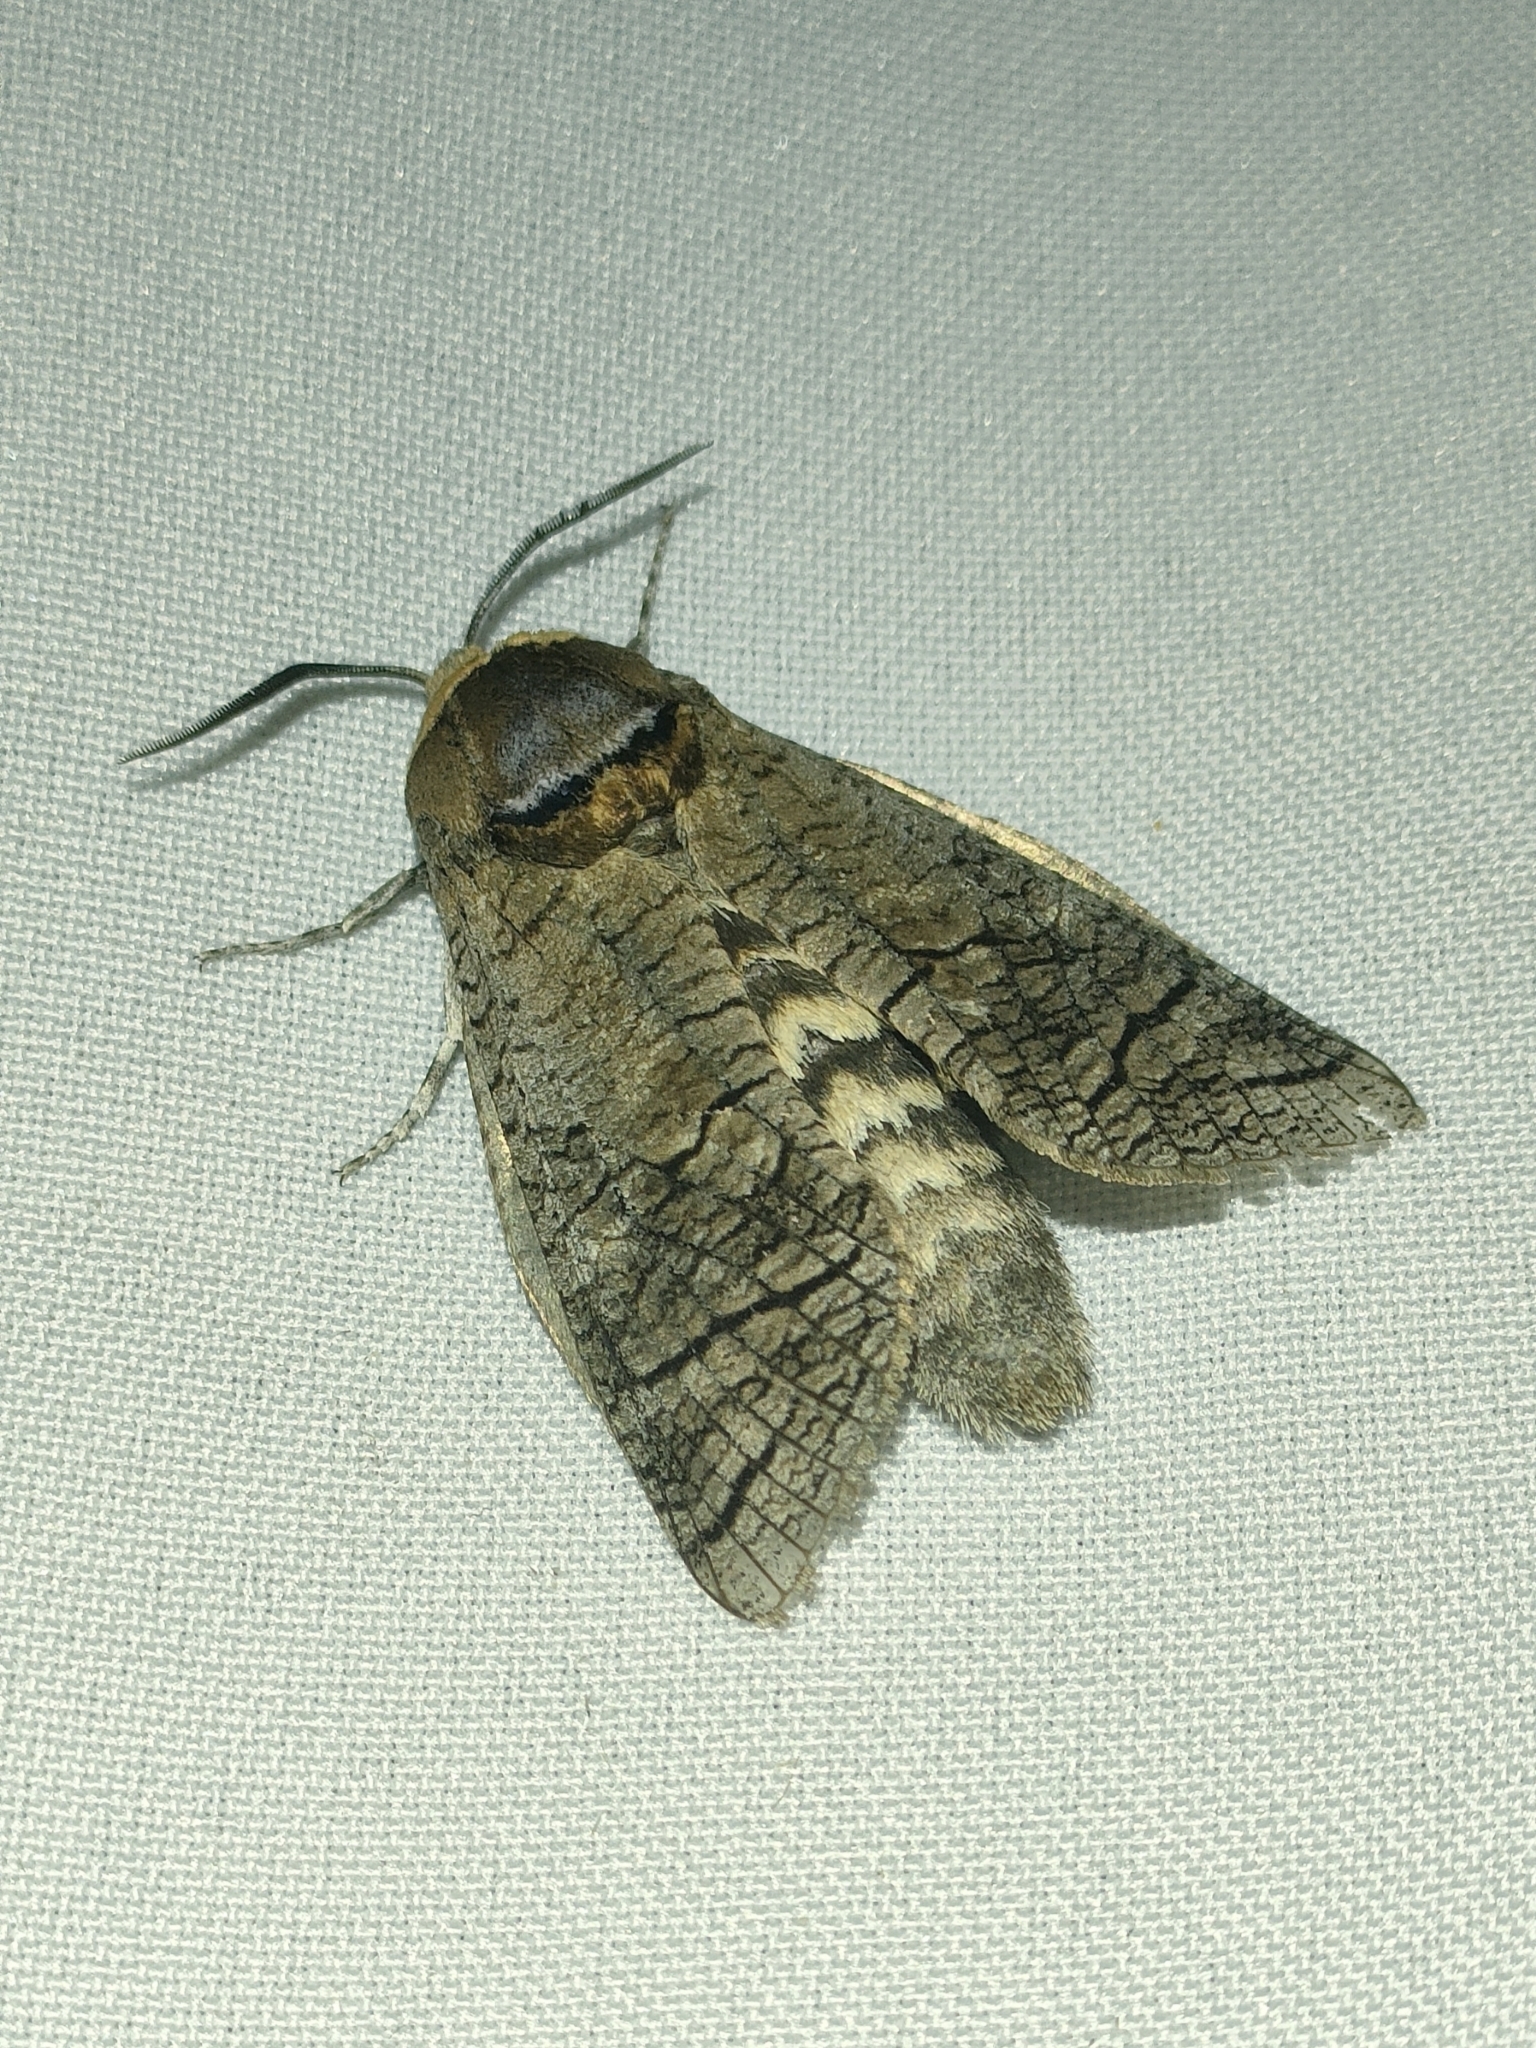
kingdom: Animalia
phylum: Arthropoda
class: Insecta
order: Lepidoptera
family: Cossidae
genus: Cossus
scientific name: Cossus cossus
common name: Goat moth
